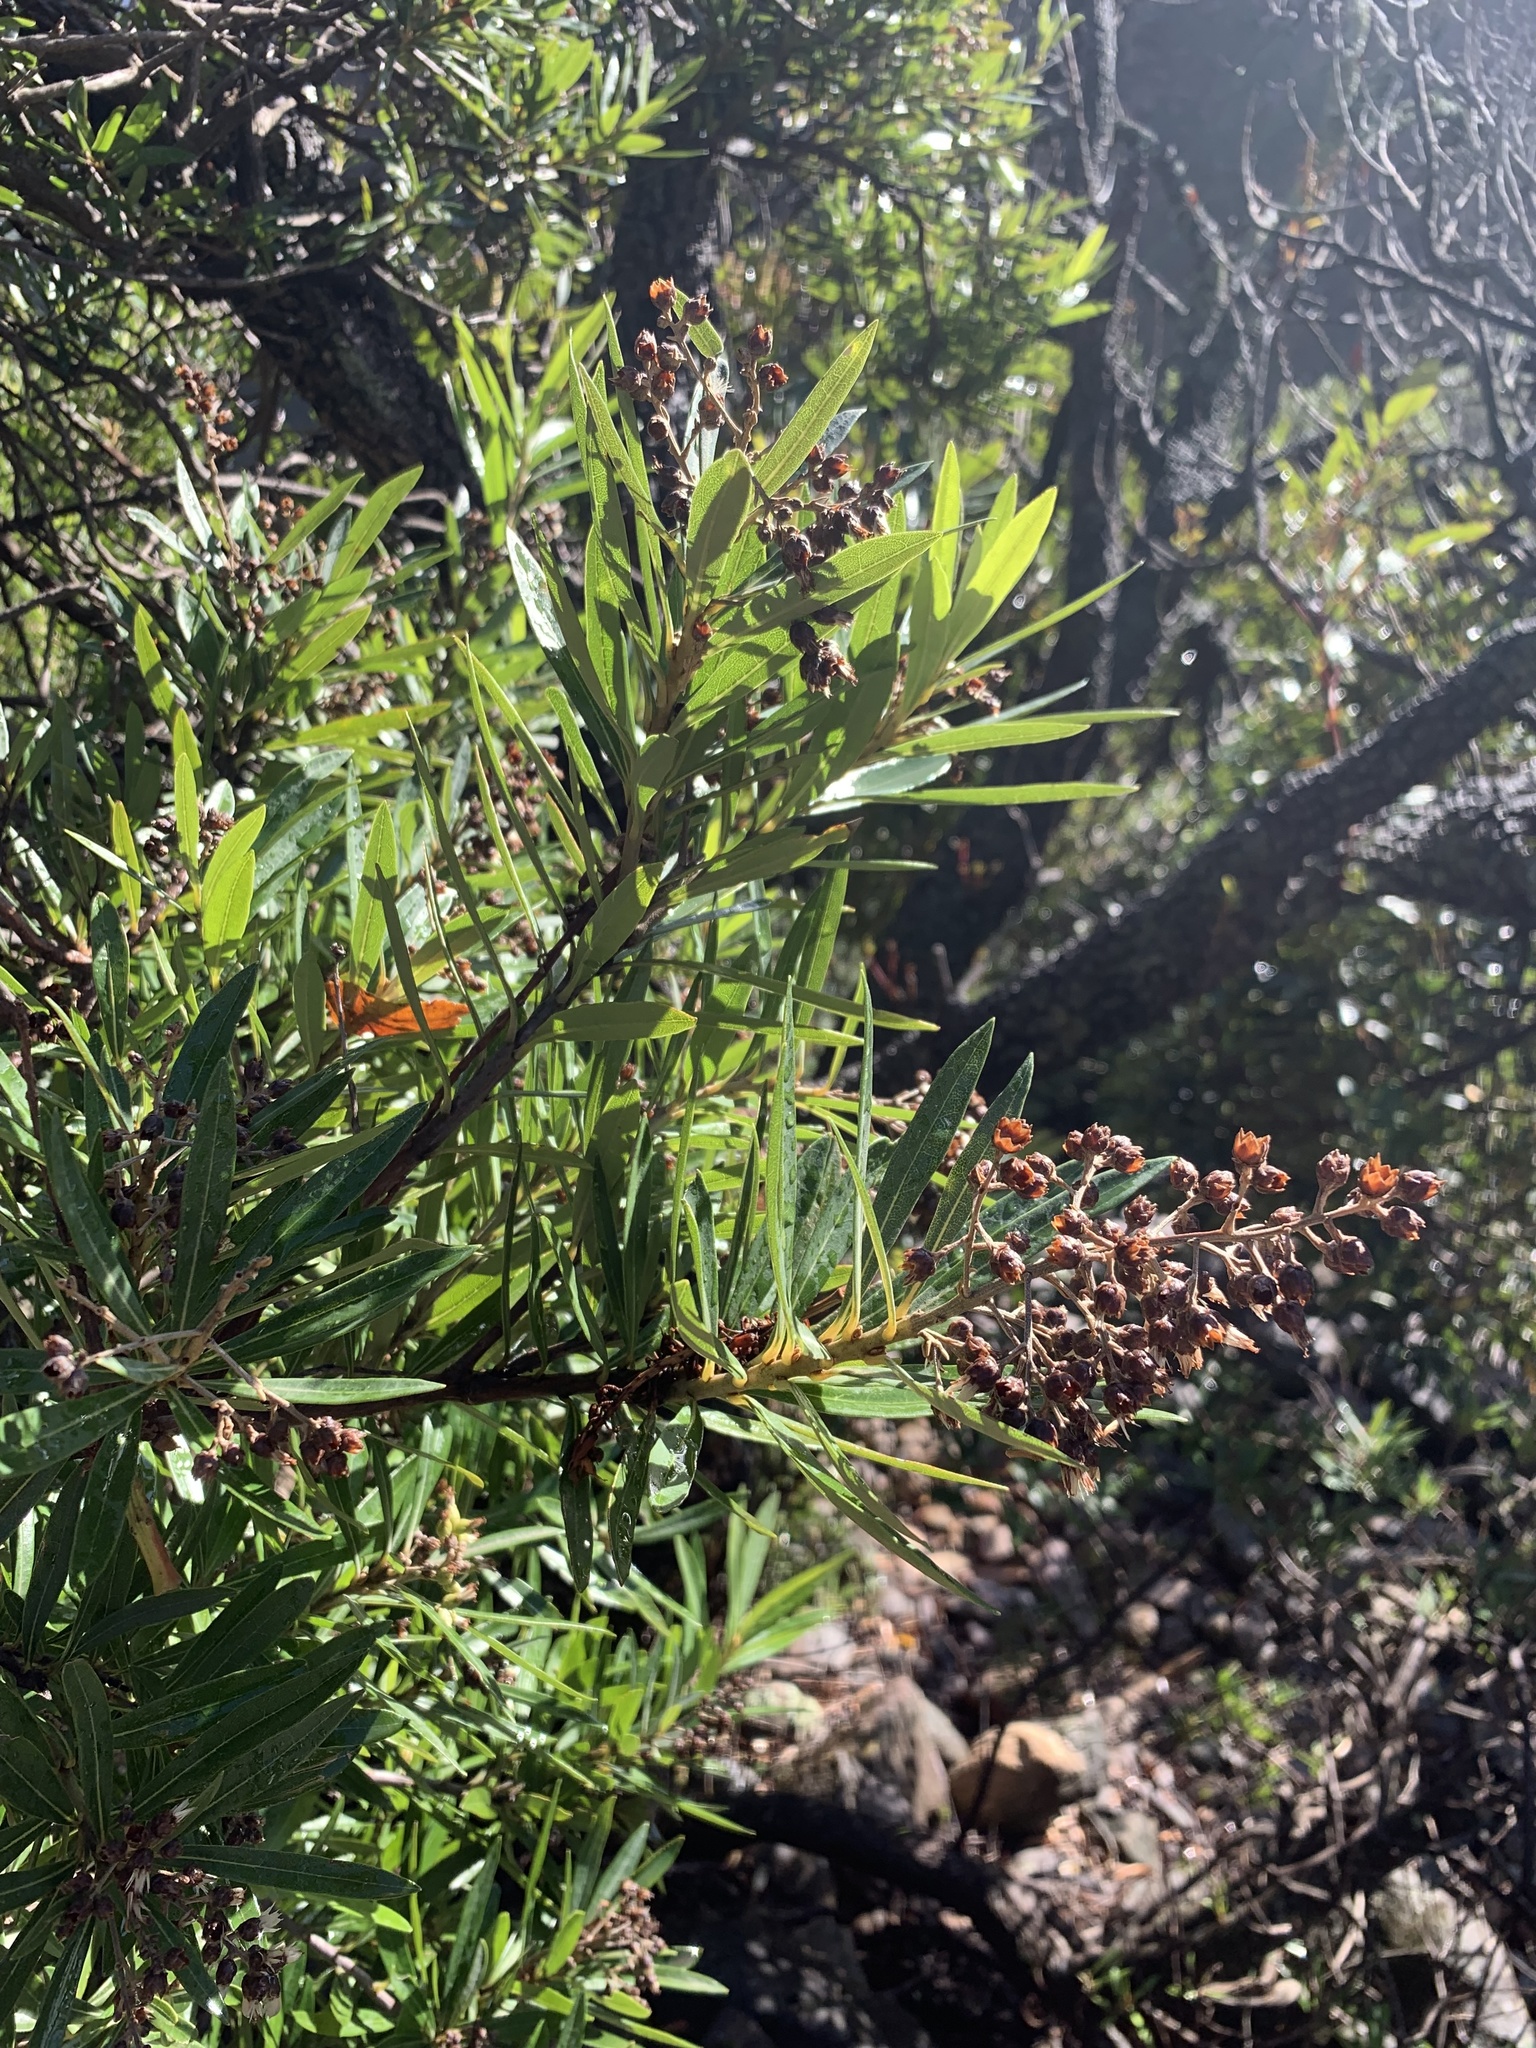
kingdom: Plantae
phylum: Tracheophyta
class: Magnoliopsida
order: Asterales
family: Asteraceae
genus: Brachylaena
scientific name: Brachylaena neriifolia
